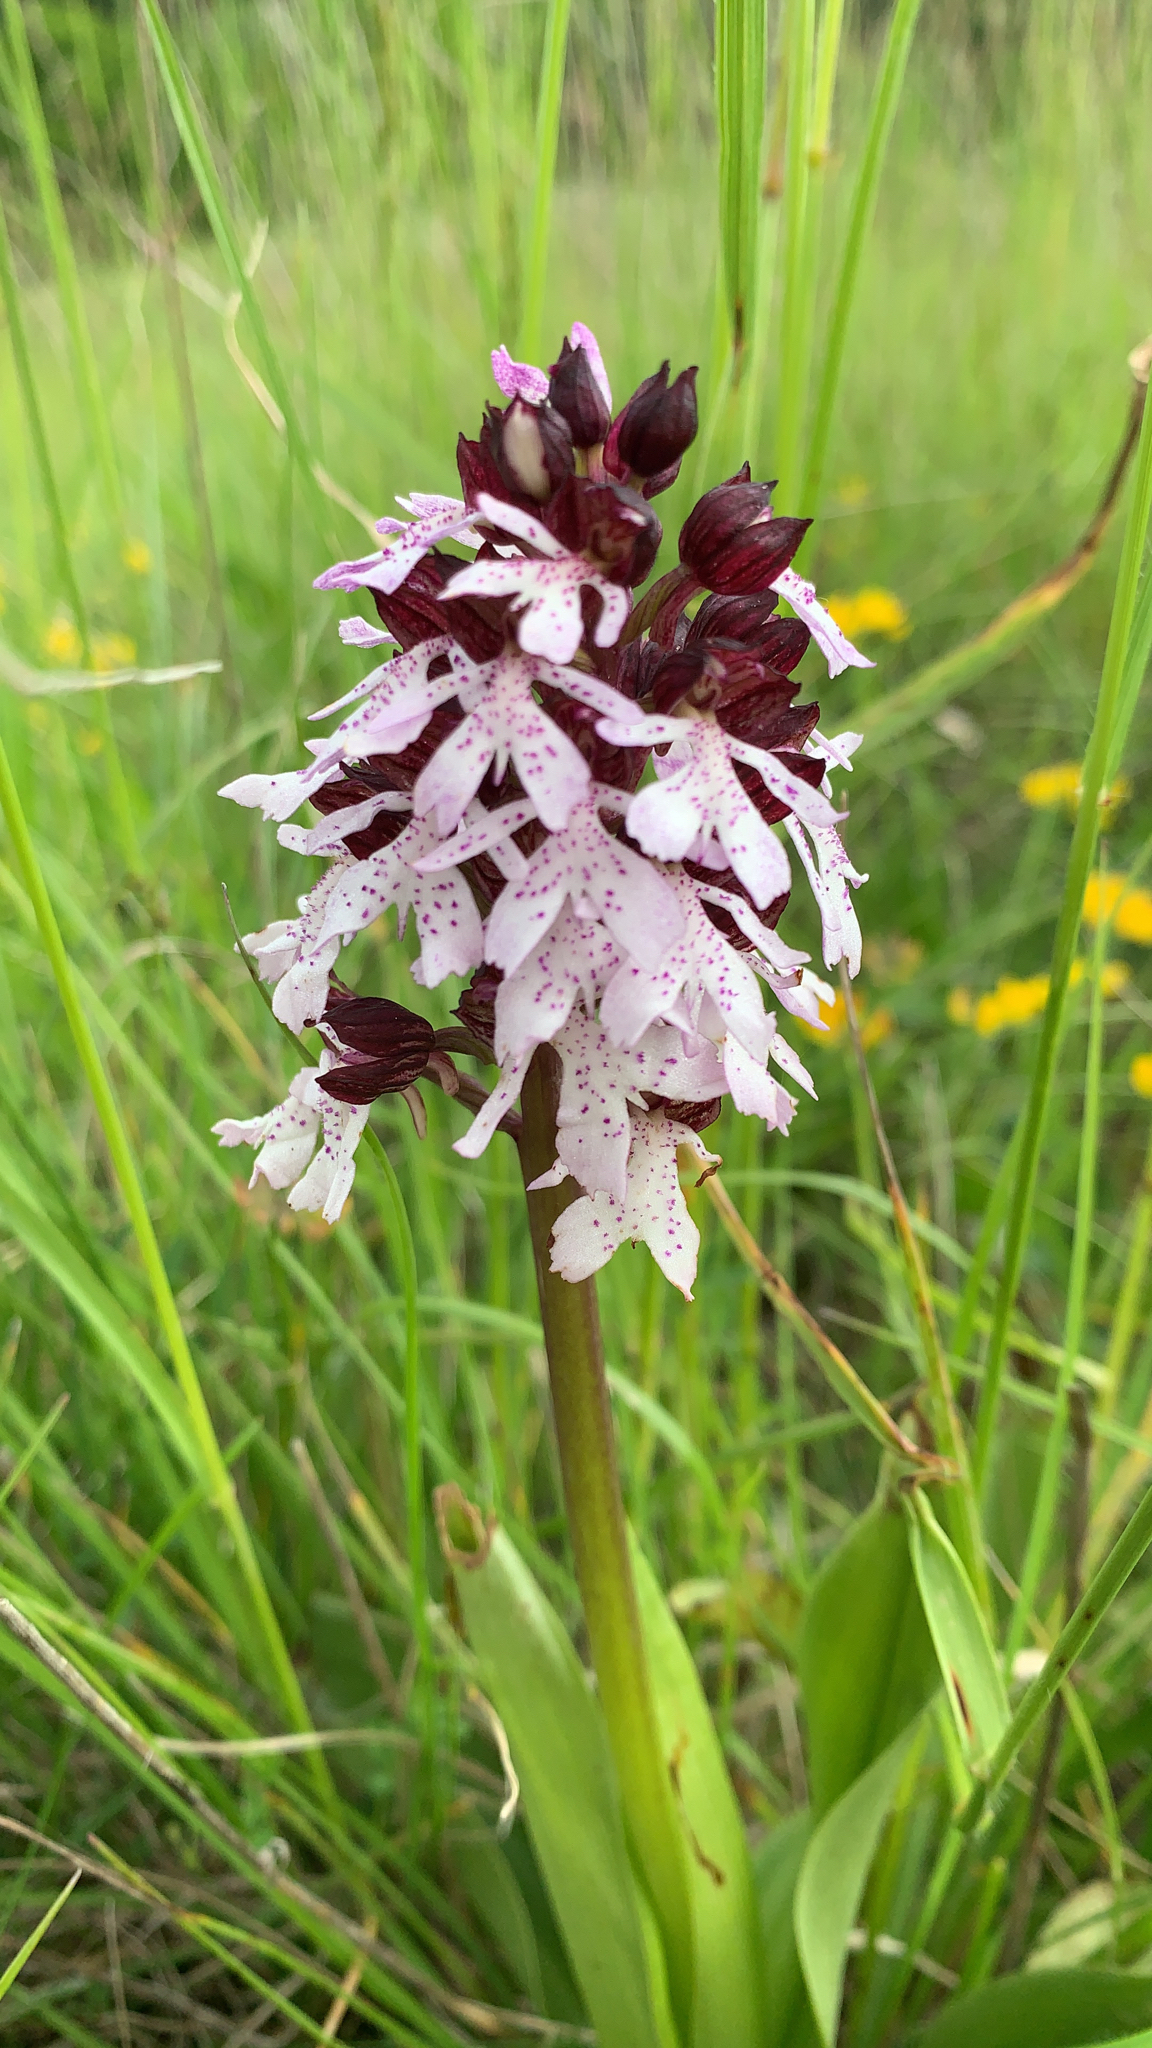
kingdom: Plantae
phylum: Tracheophyta
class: Liliopsida
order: Asparagales
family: Orchidaceae
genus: Orchis
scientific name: Orchis purpurea
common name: Lady orchid
